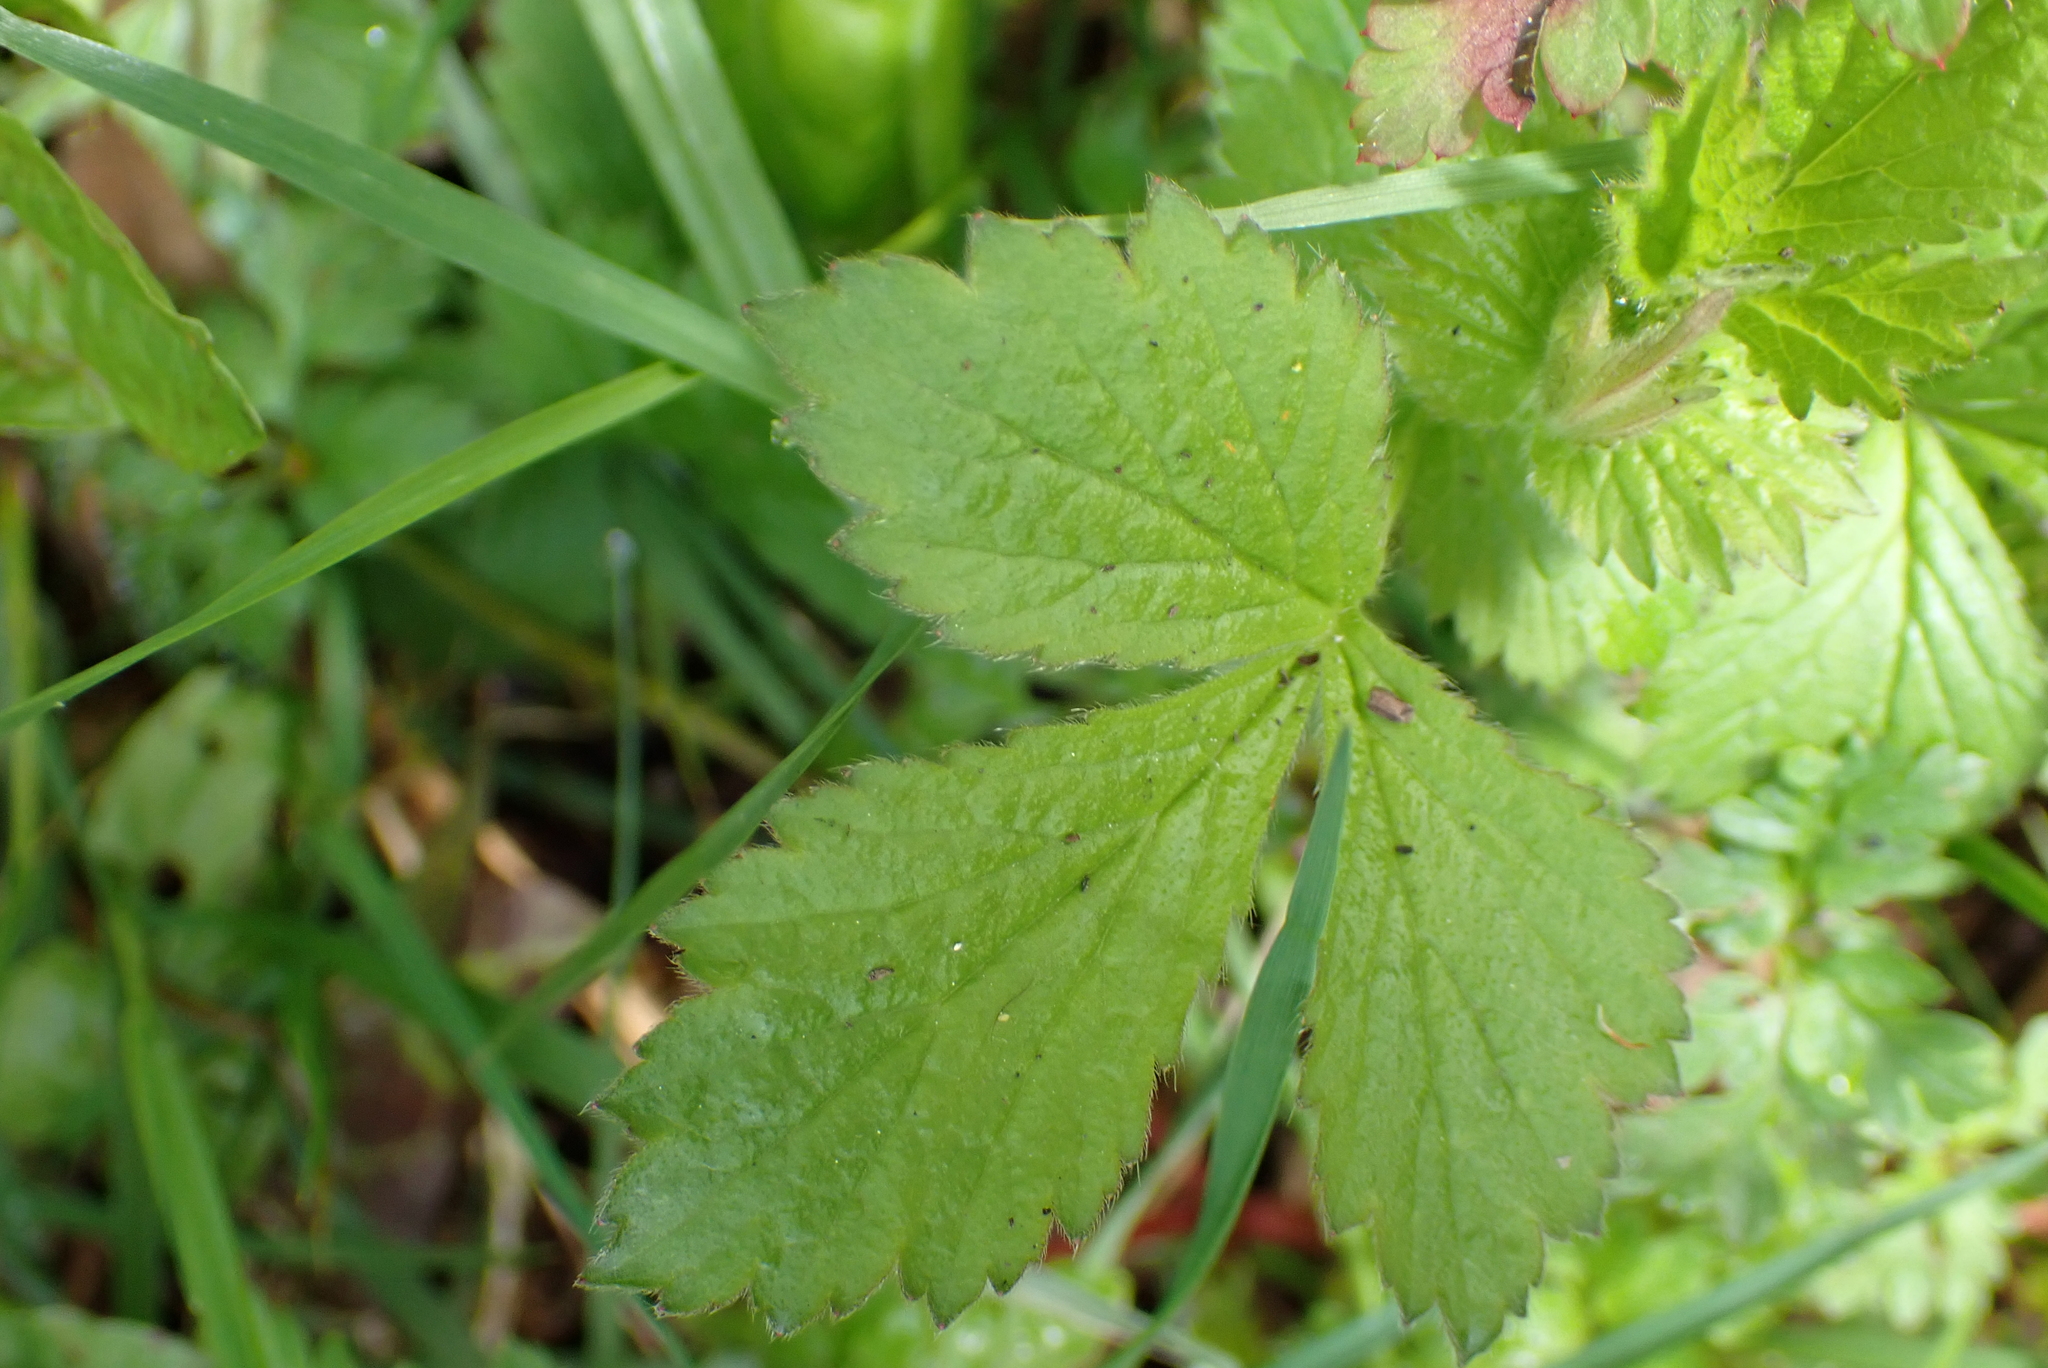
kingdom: Plantae
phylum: Tracheophyta
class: Magnoliopsida
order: Rosales
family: Rosaceae
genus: Geum
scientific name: Geum urbanum
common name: Wood avens
